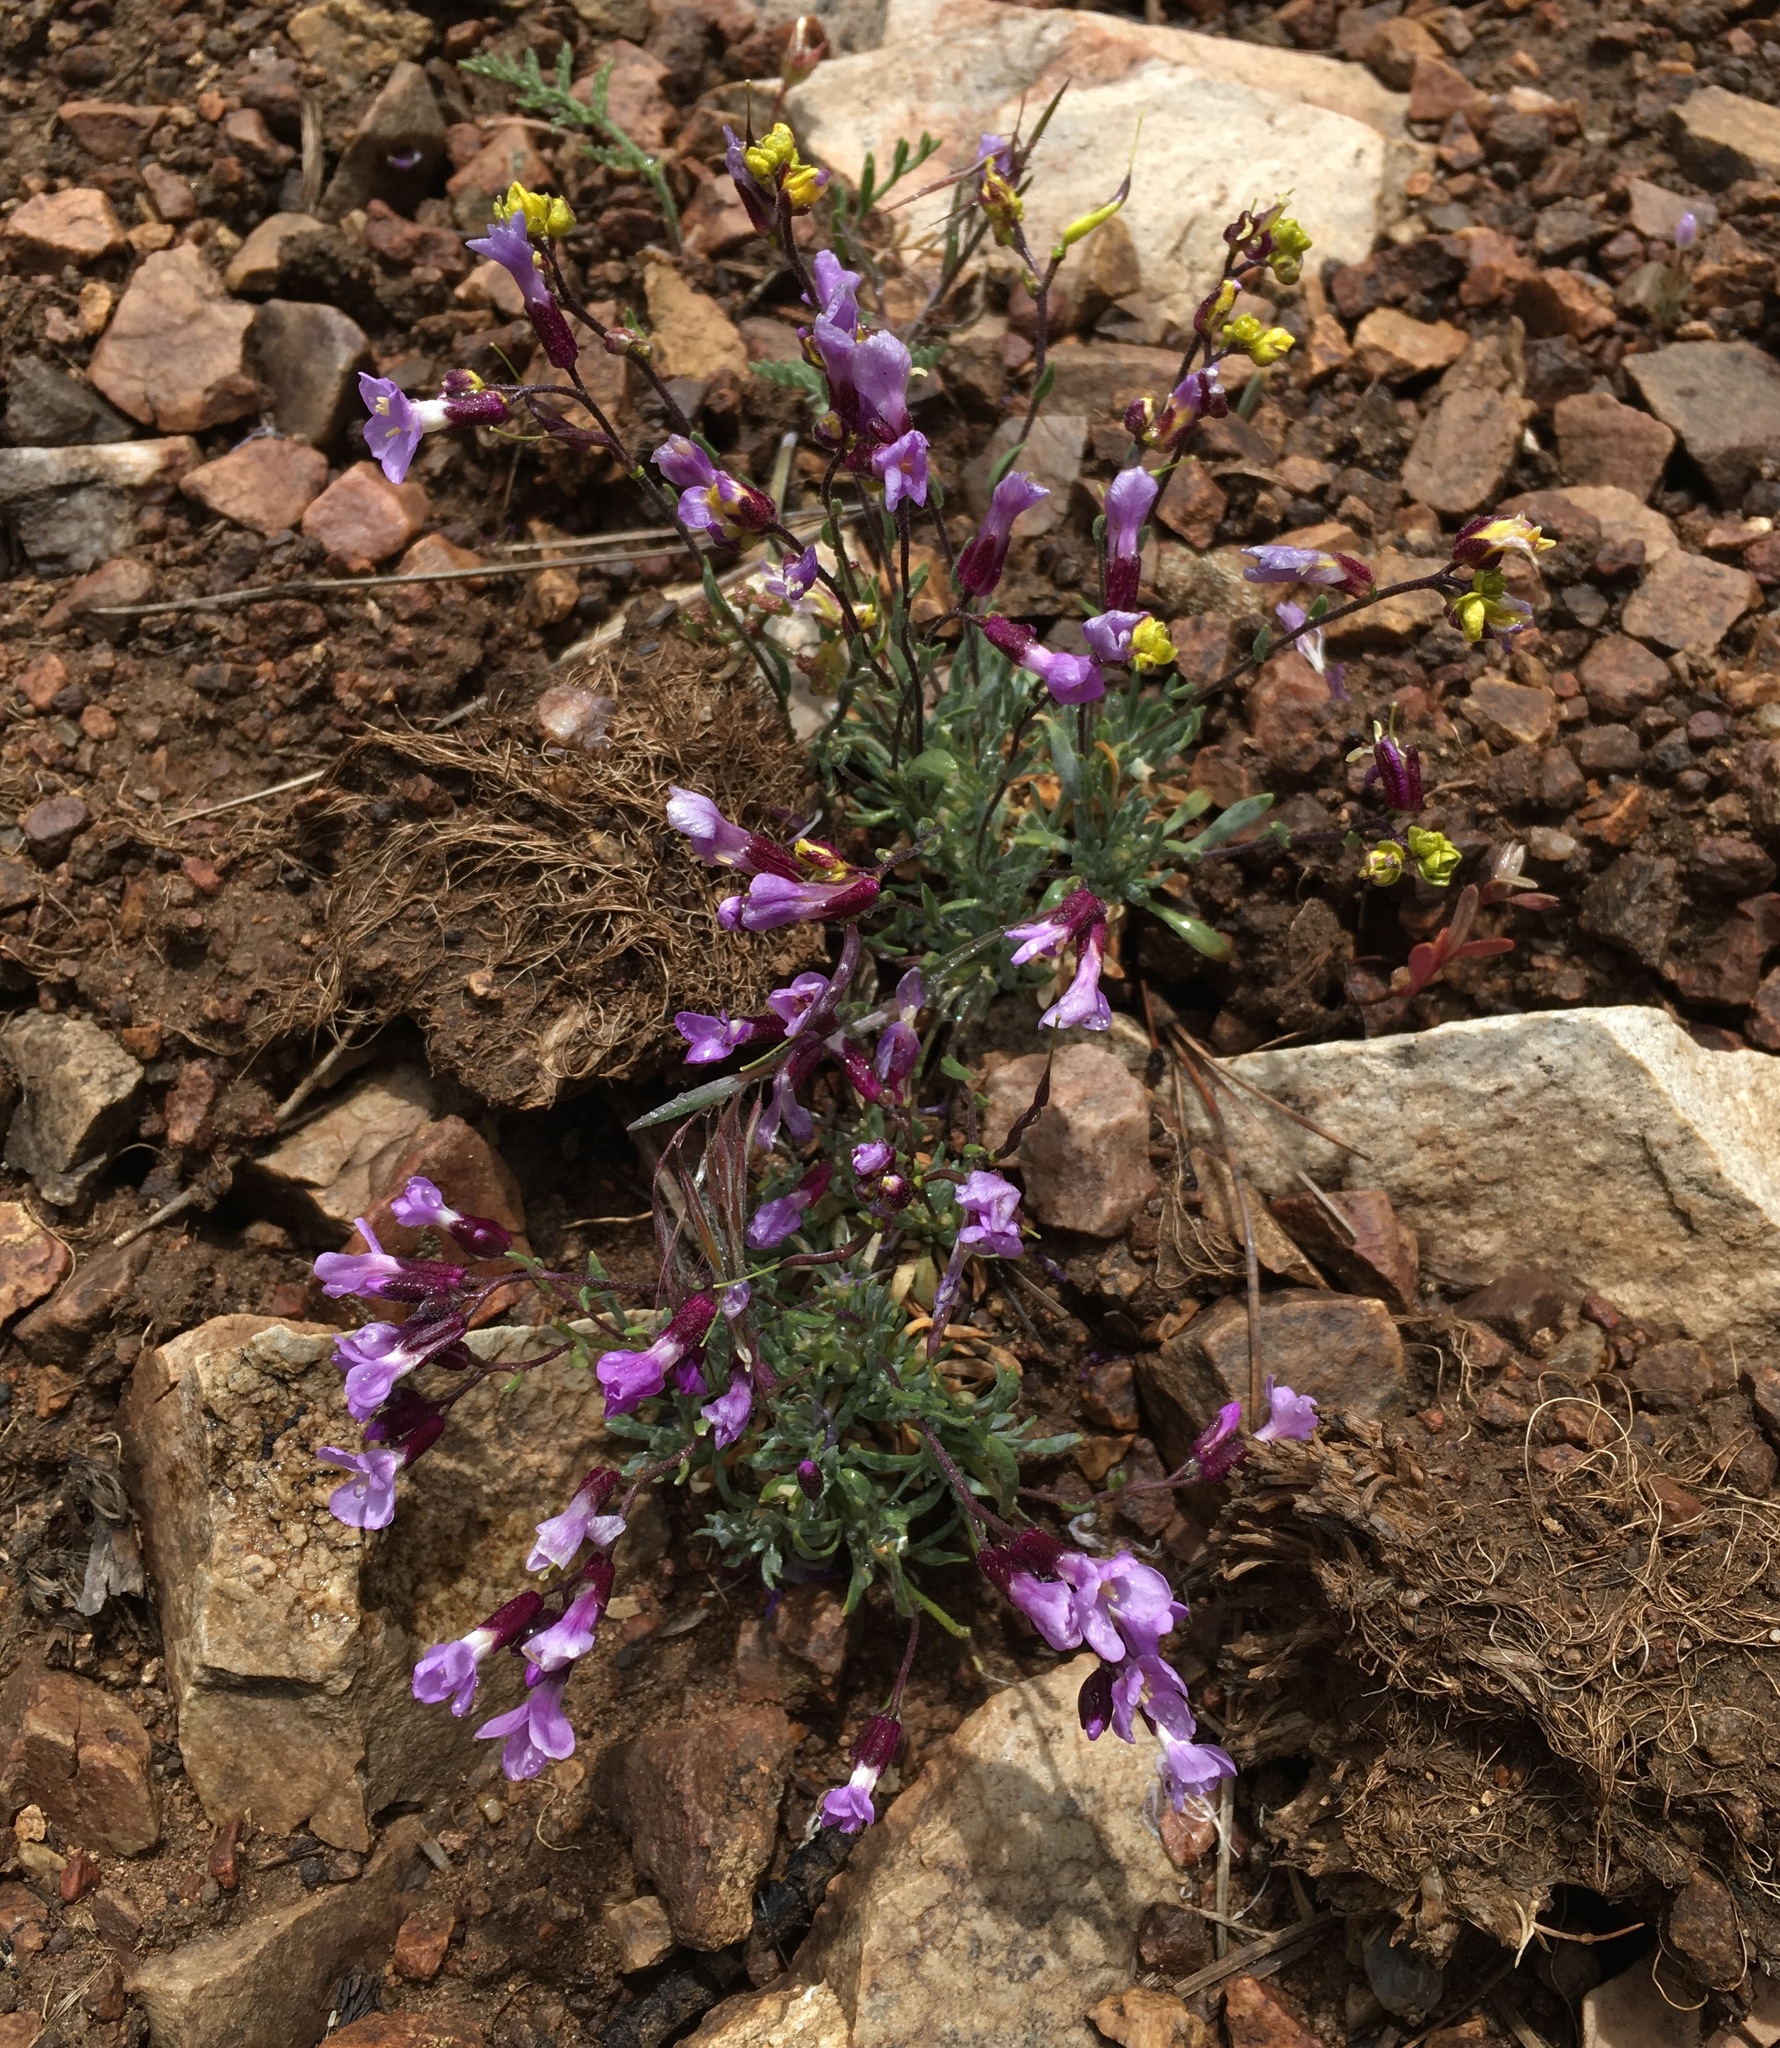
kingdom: Plantae
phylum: Tracheophyta
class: Magnoliopsida
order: Brassicales
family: Brassicaceae
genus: Boechera
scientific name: Boechera parishii
